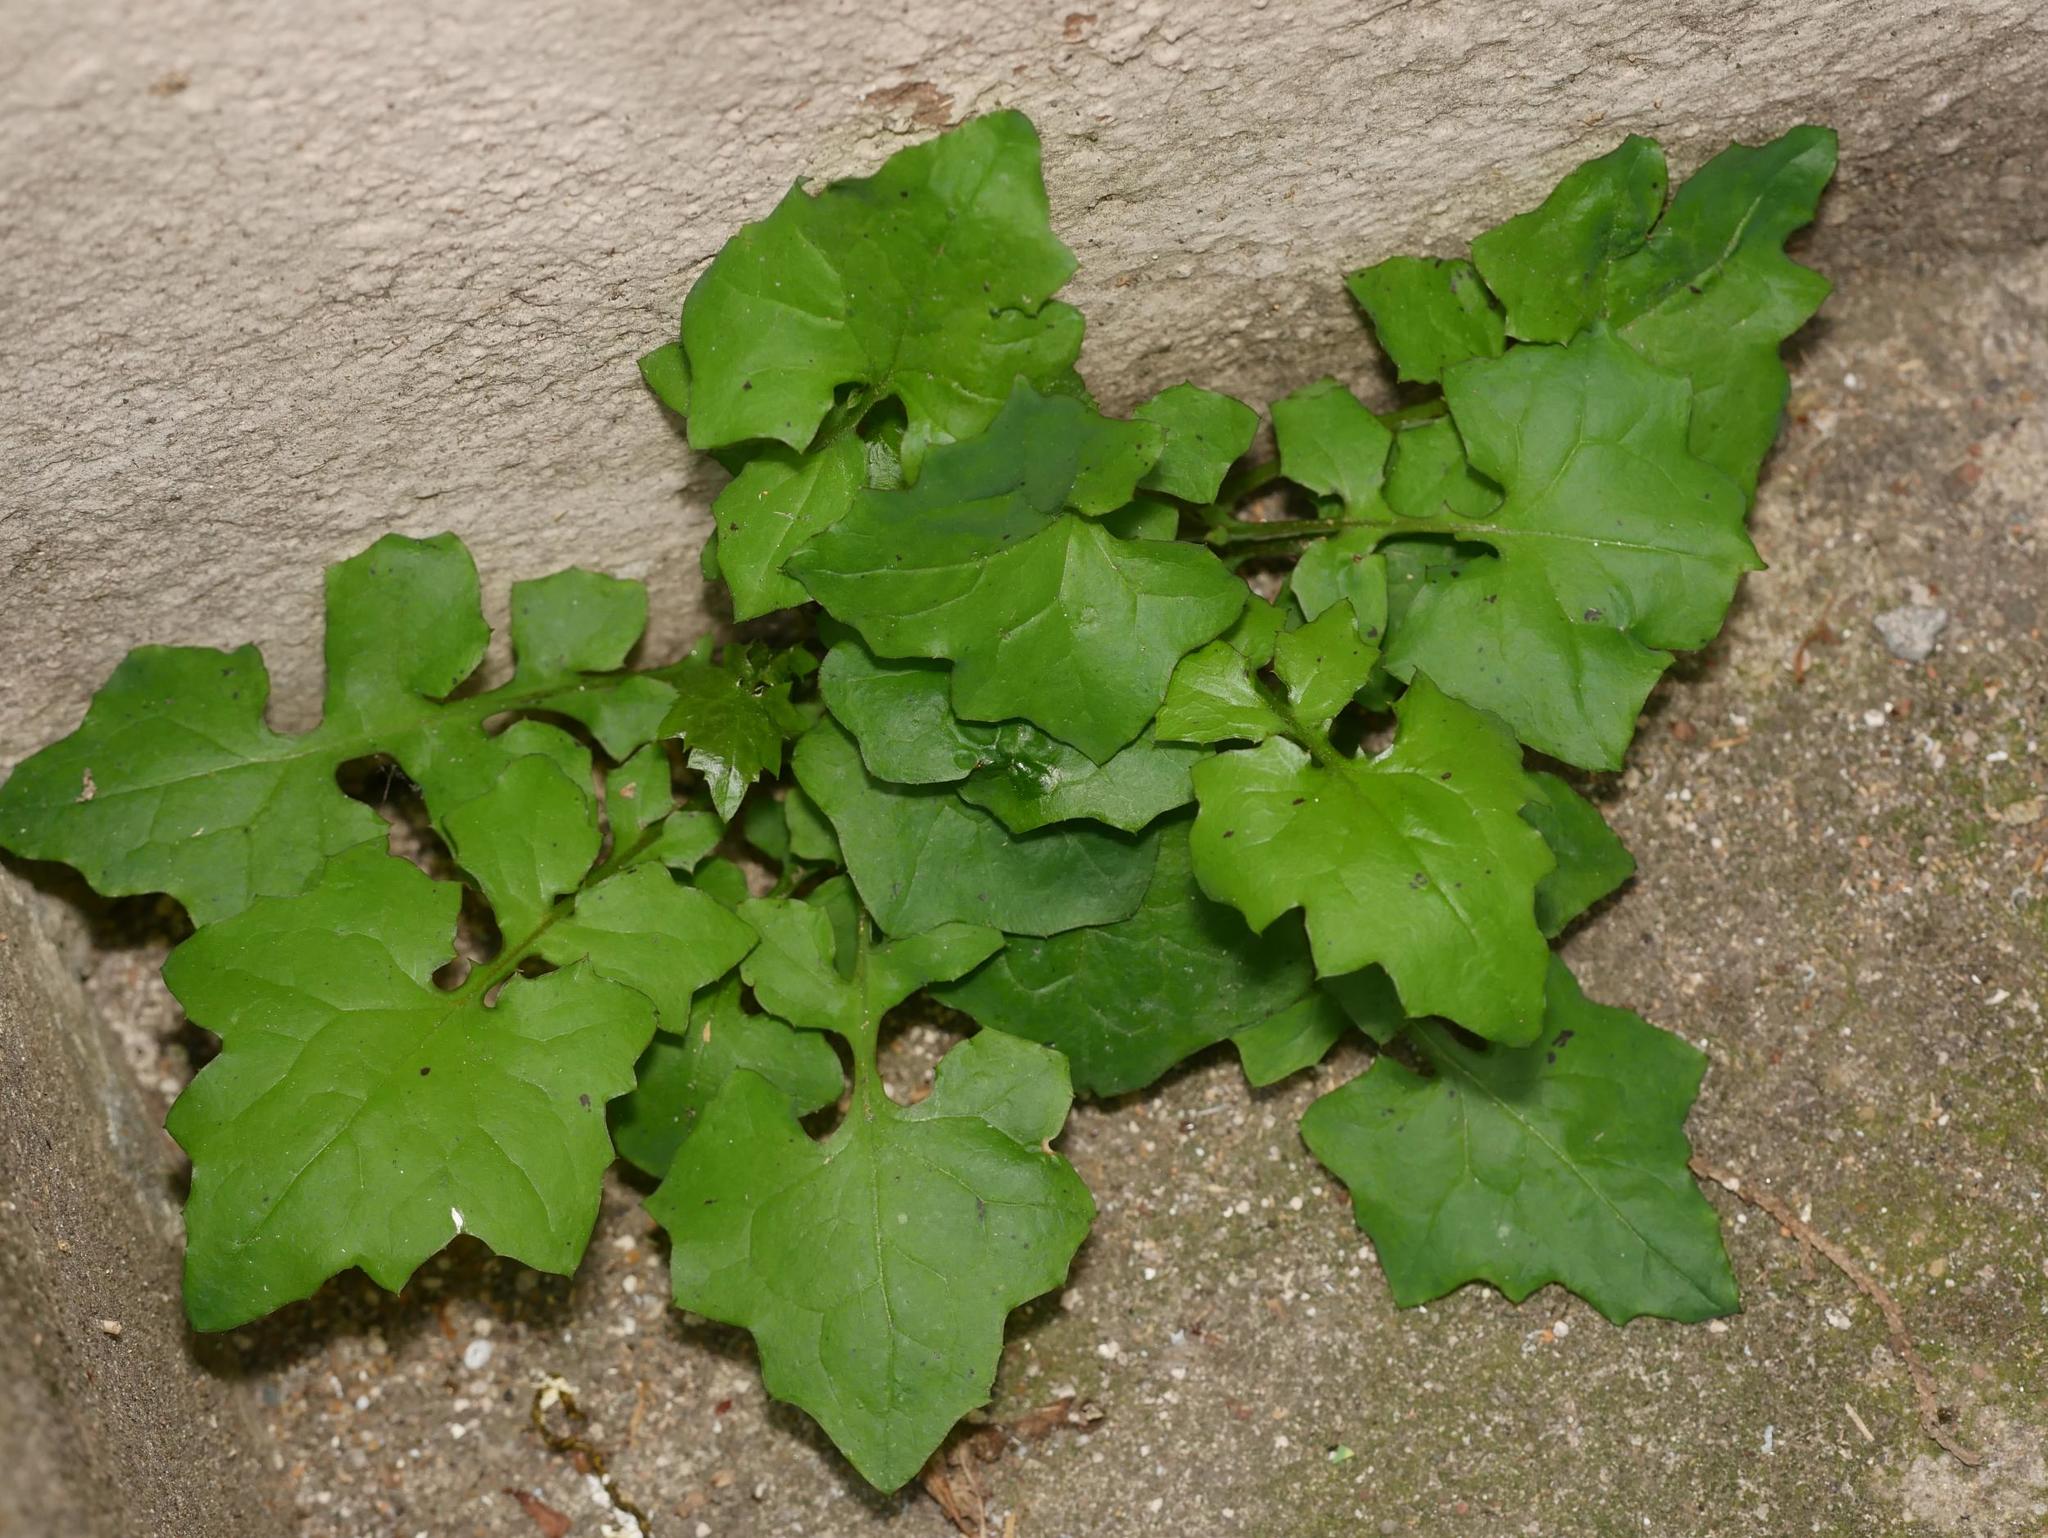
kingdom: Plantae
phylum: Tracheophyta
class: Magnoliopsida
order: Asterales
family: Asteraceae
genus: Mycelis
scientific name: Mycelis muralis
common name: Wall lettuce
